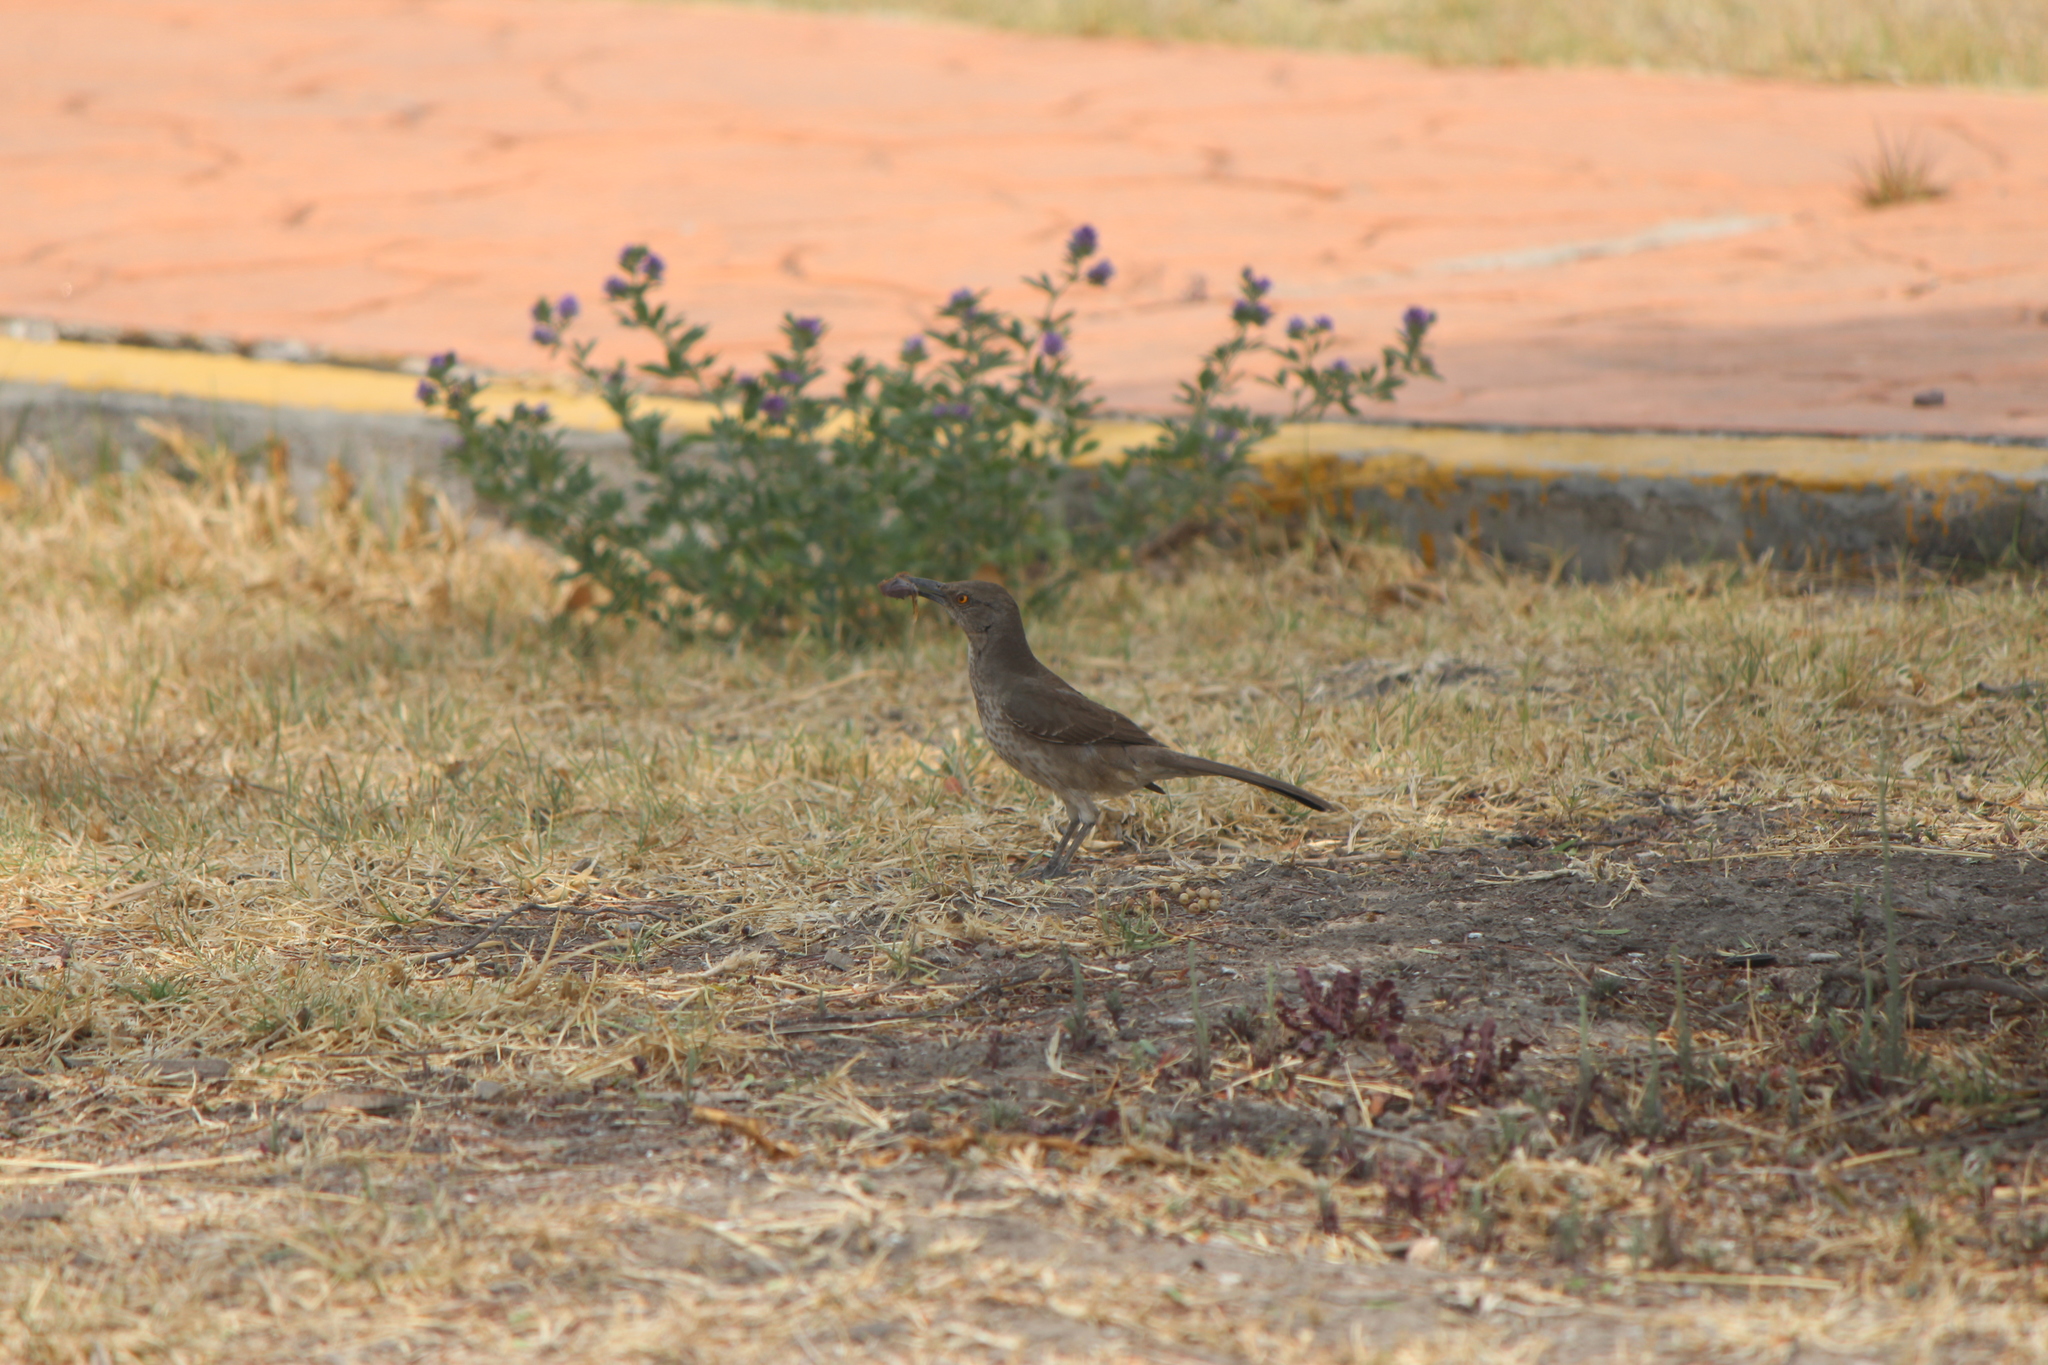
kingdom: Animalia
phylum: Chordata
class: Aves
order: Passeriformes
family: Mimidae
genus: Toxostoma
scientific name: Toxostoma curvirostre
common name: Curve-billed thrasher
